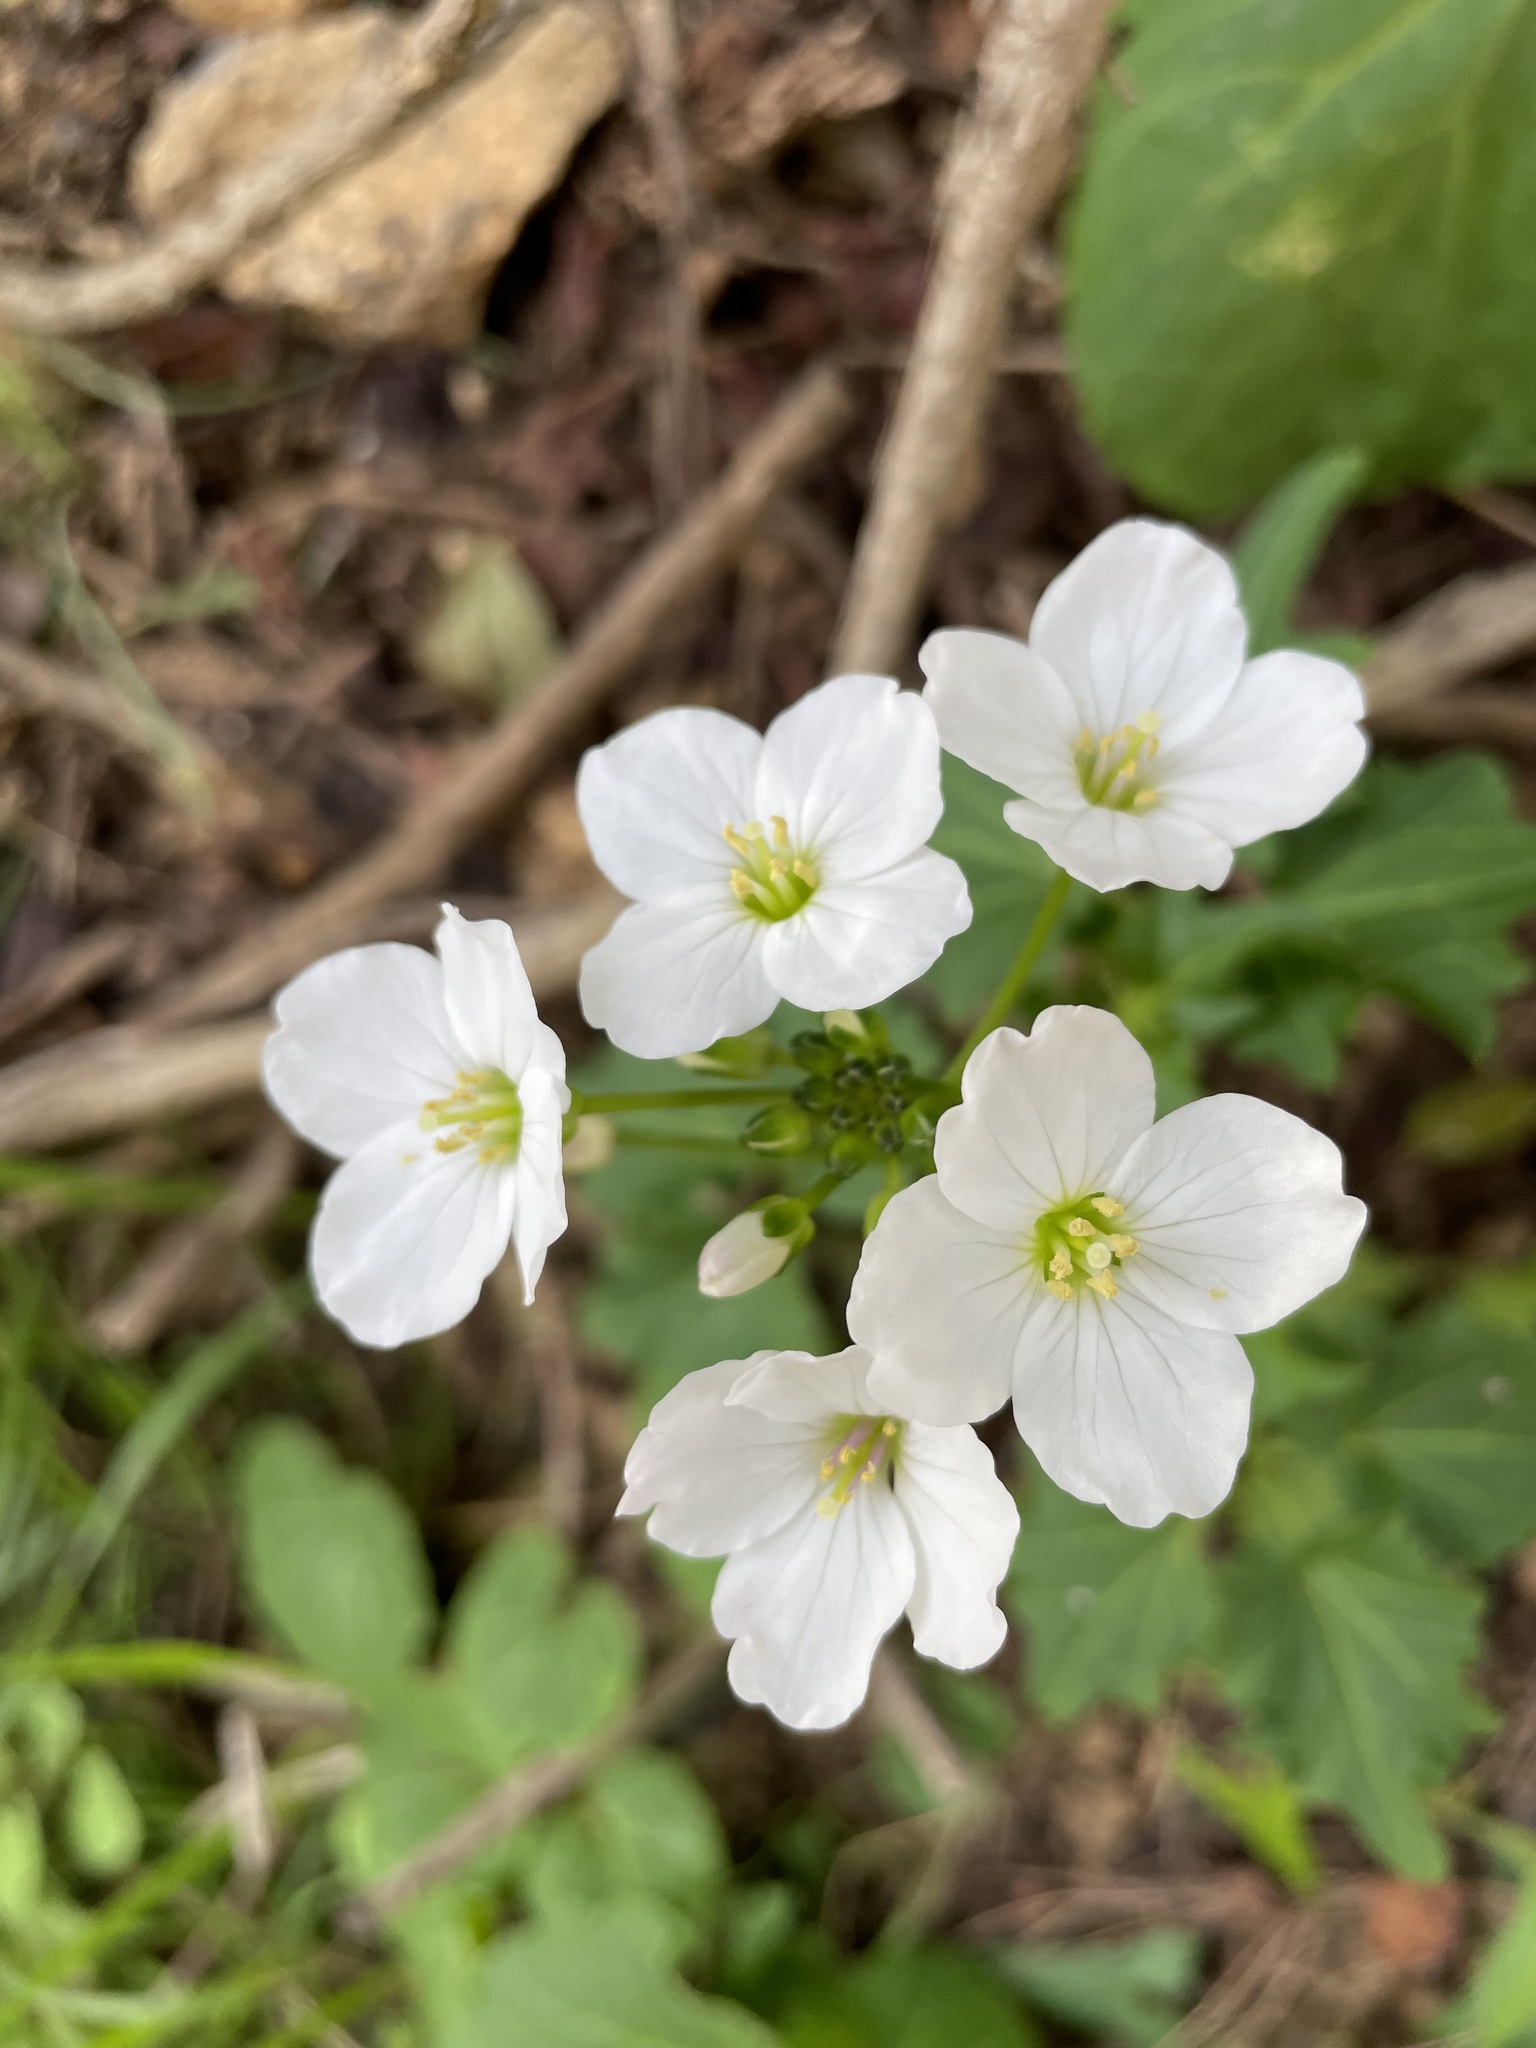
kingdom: Plantae
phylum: Tracheophyta
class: Magnoliopsida
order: Brassicales
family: Brassicaceae
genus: Cardamine
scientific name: Cardamine californica
